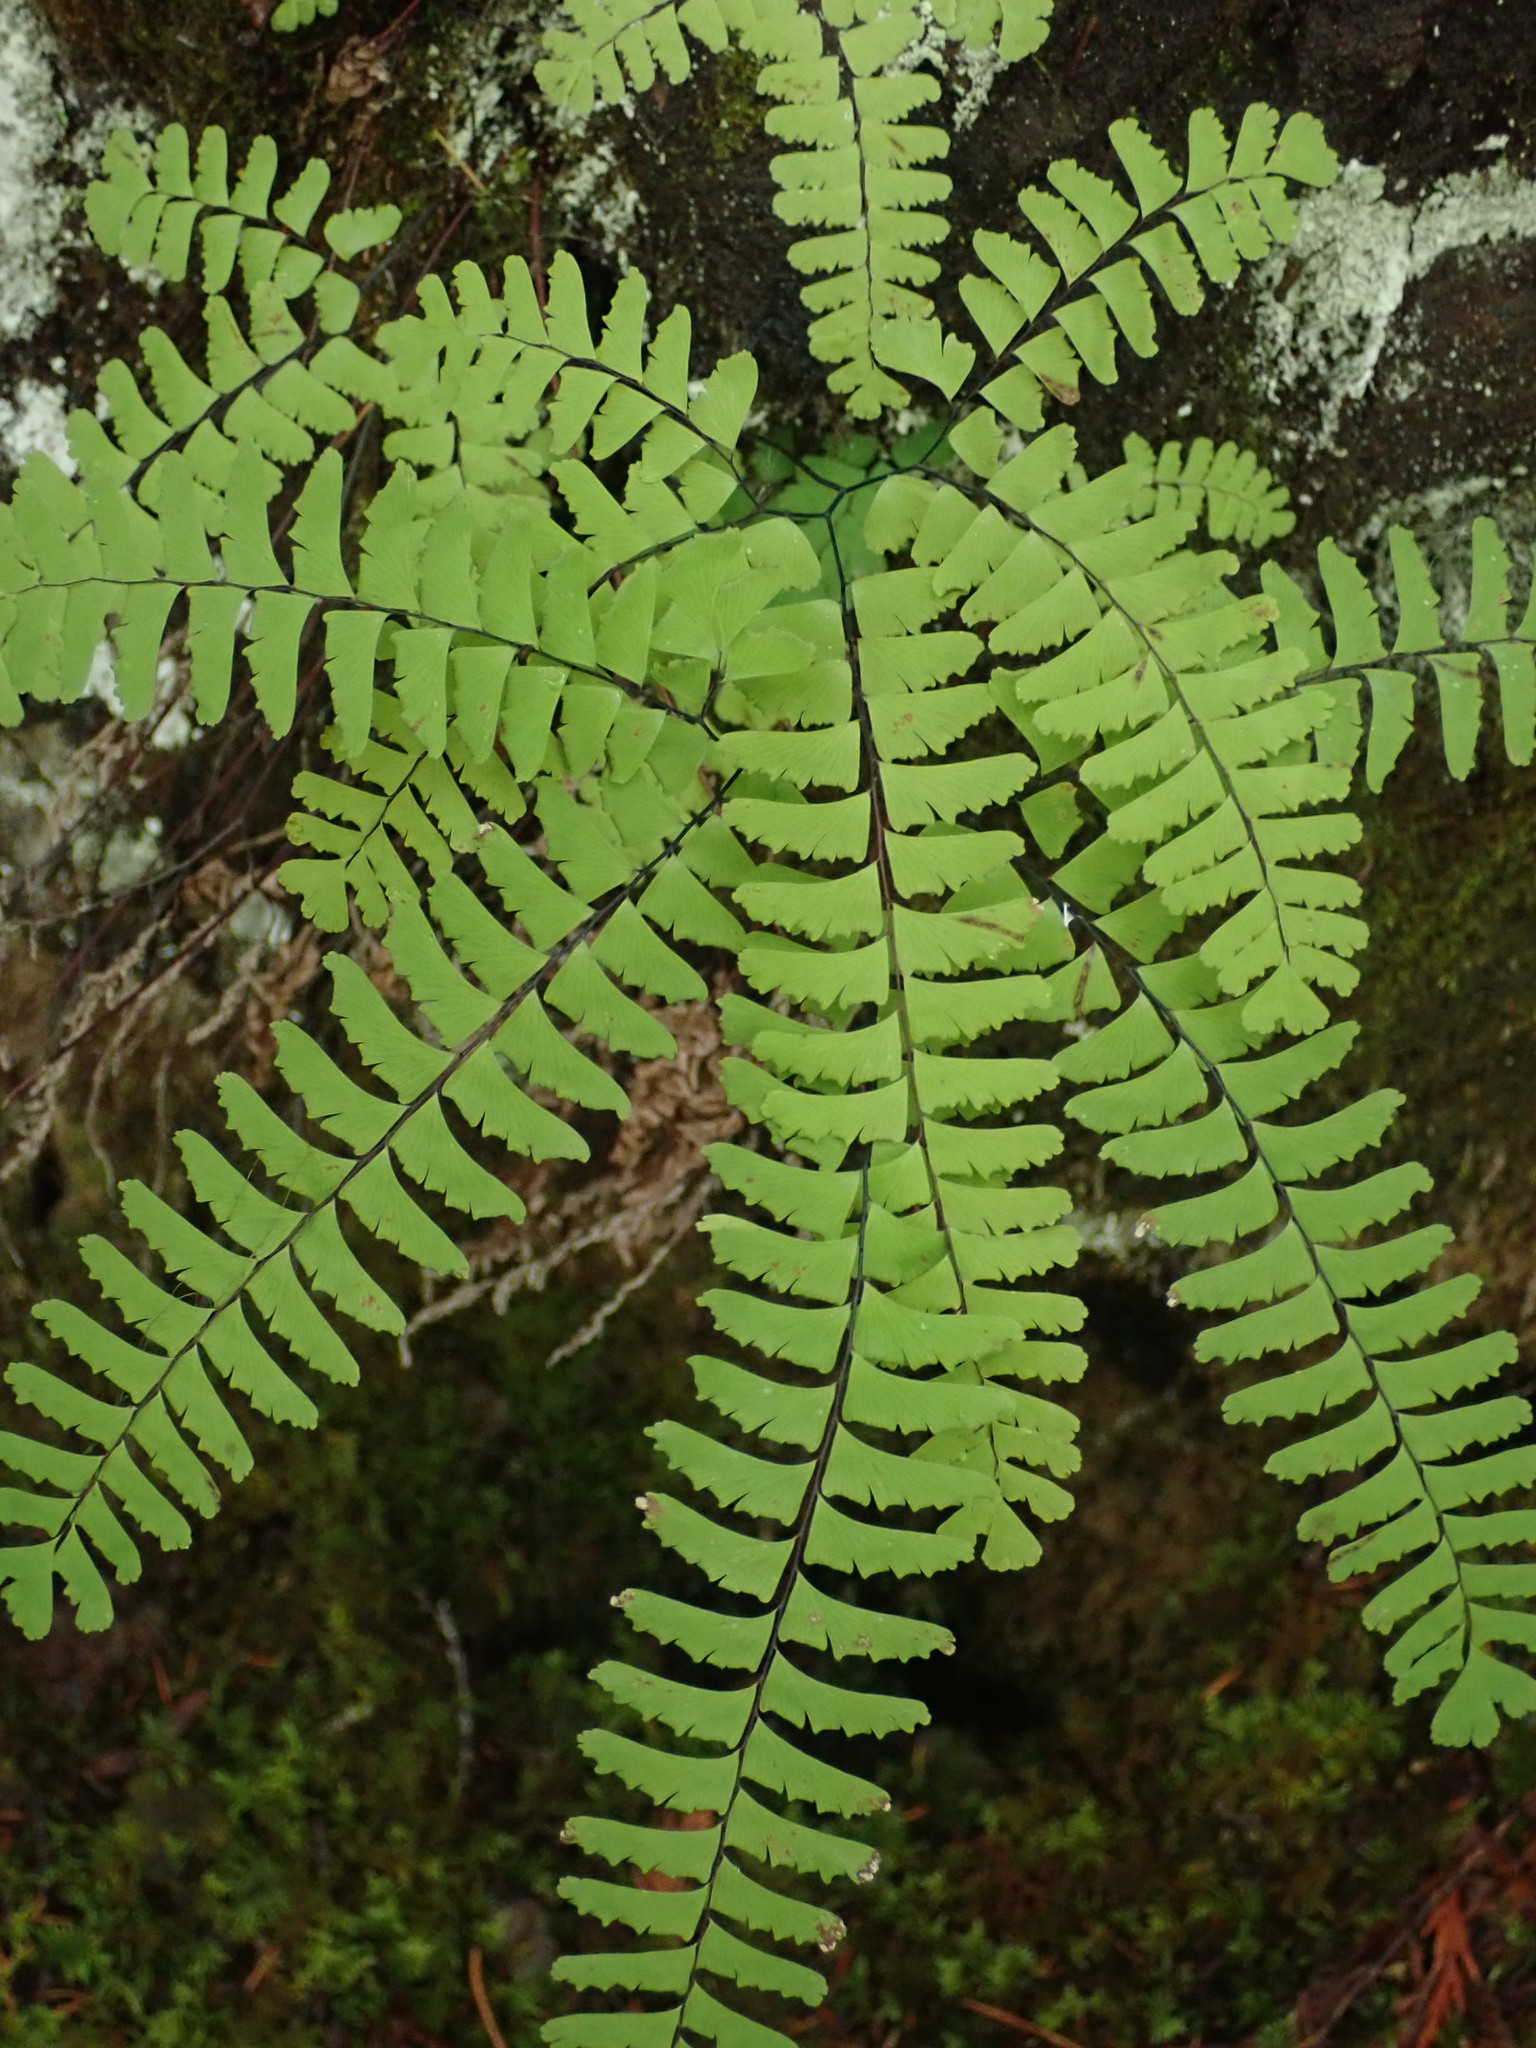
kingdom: Plantae
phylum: Tracheophyta
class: Polypodiopsida
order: Polypodiales
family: Pteridaceae
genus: Adiantum
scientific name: Adiantum aleuticum
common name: Aleutian maidenhair fern
